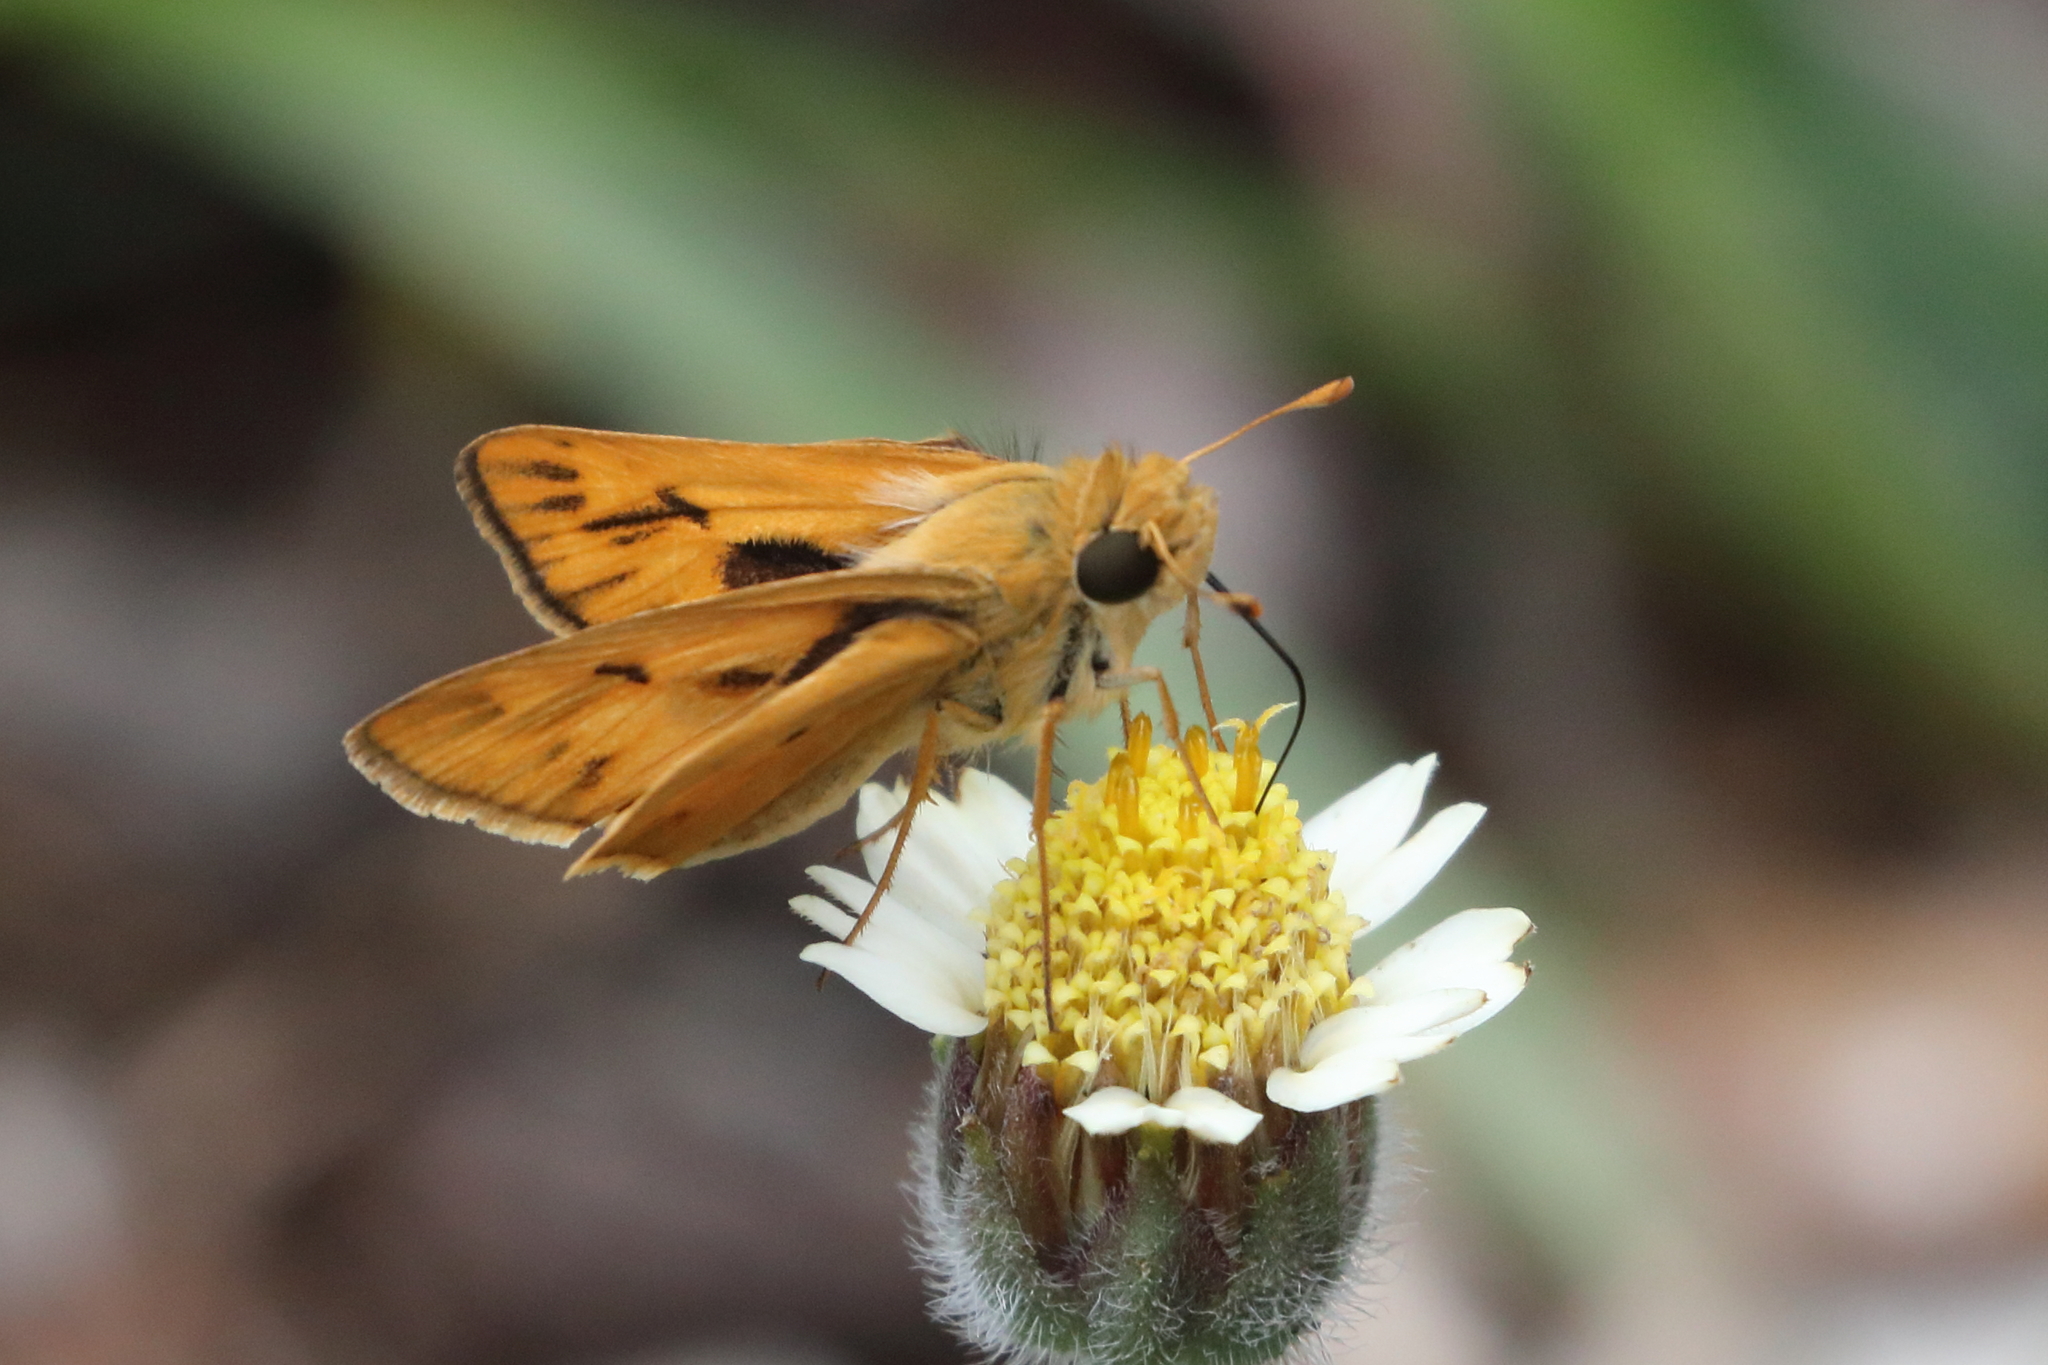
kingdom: Animalia
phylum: Arthropoda
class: Insecta
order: Lepidoptera
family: Hesperiidae
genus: Hylephila
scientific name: Hylephila phyleus
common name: Fiery skipper
